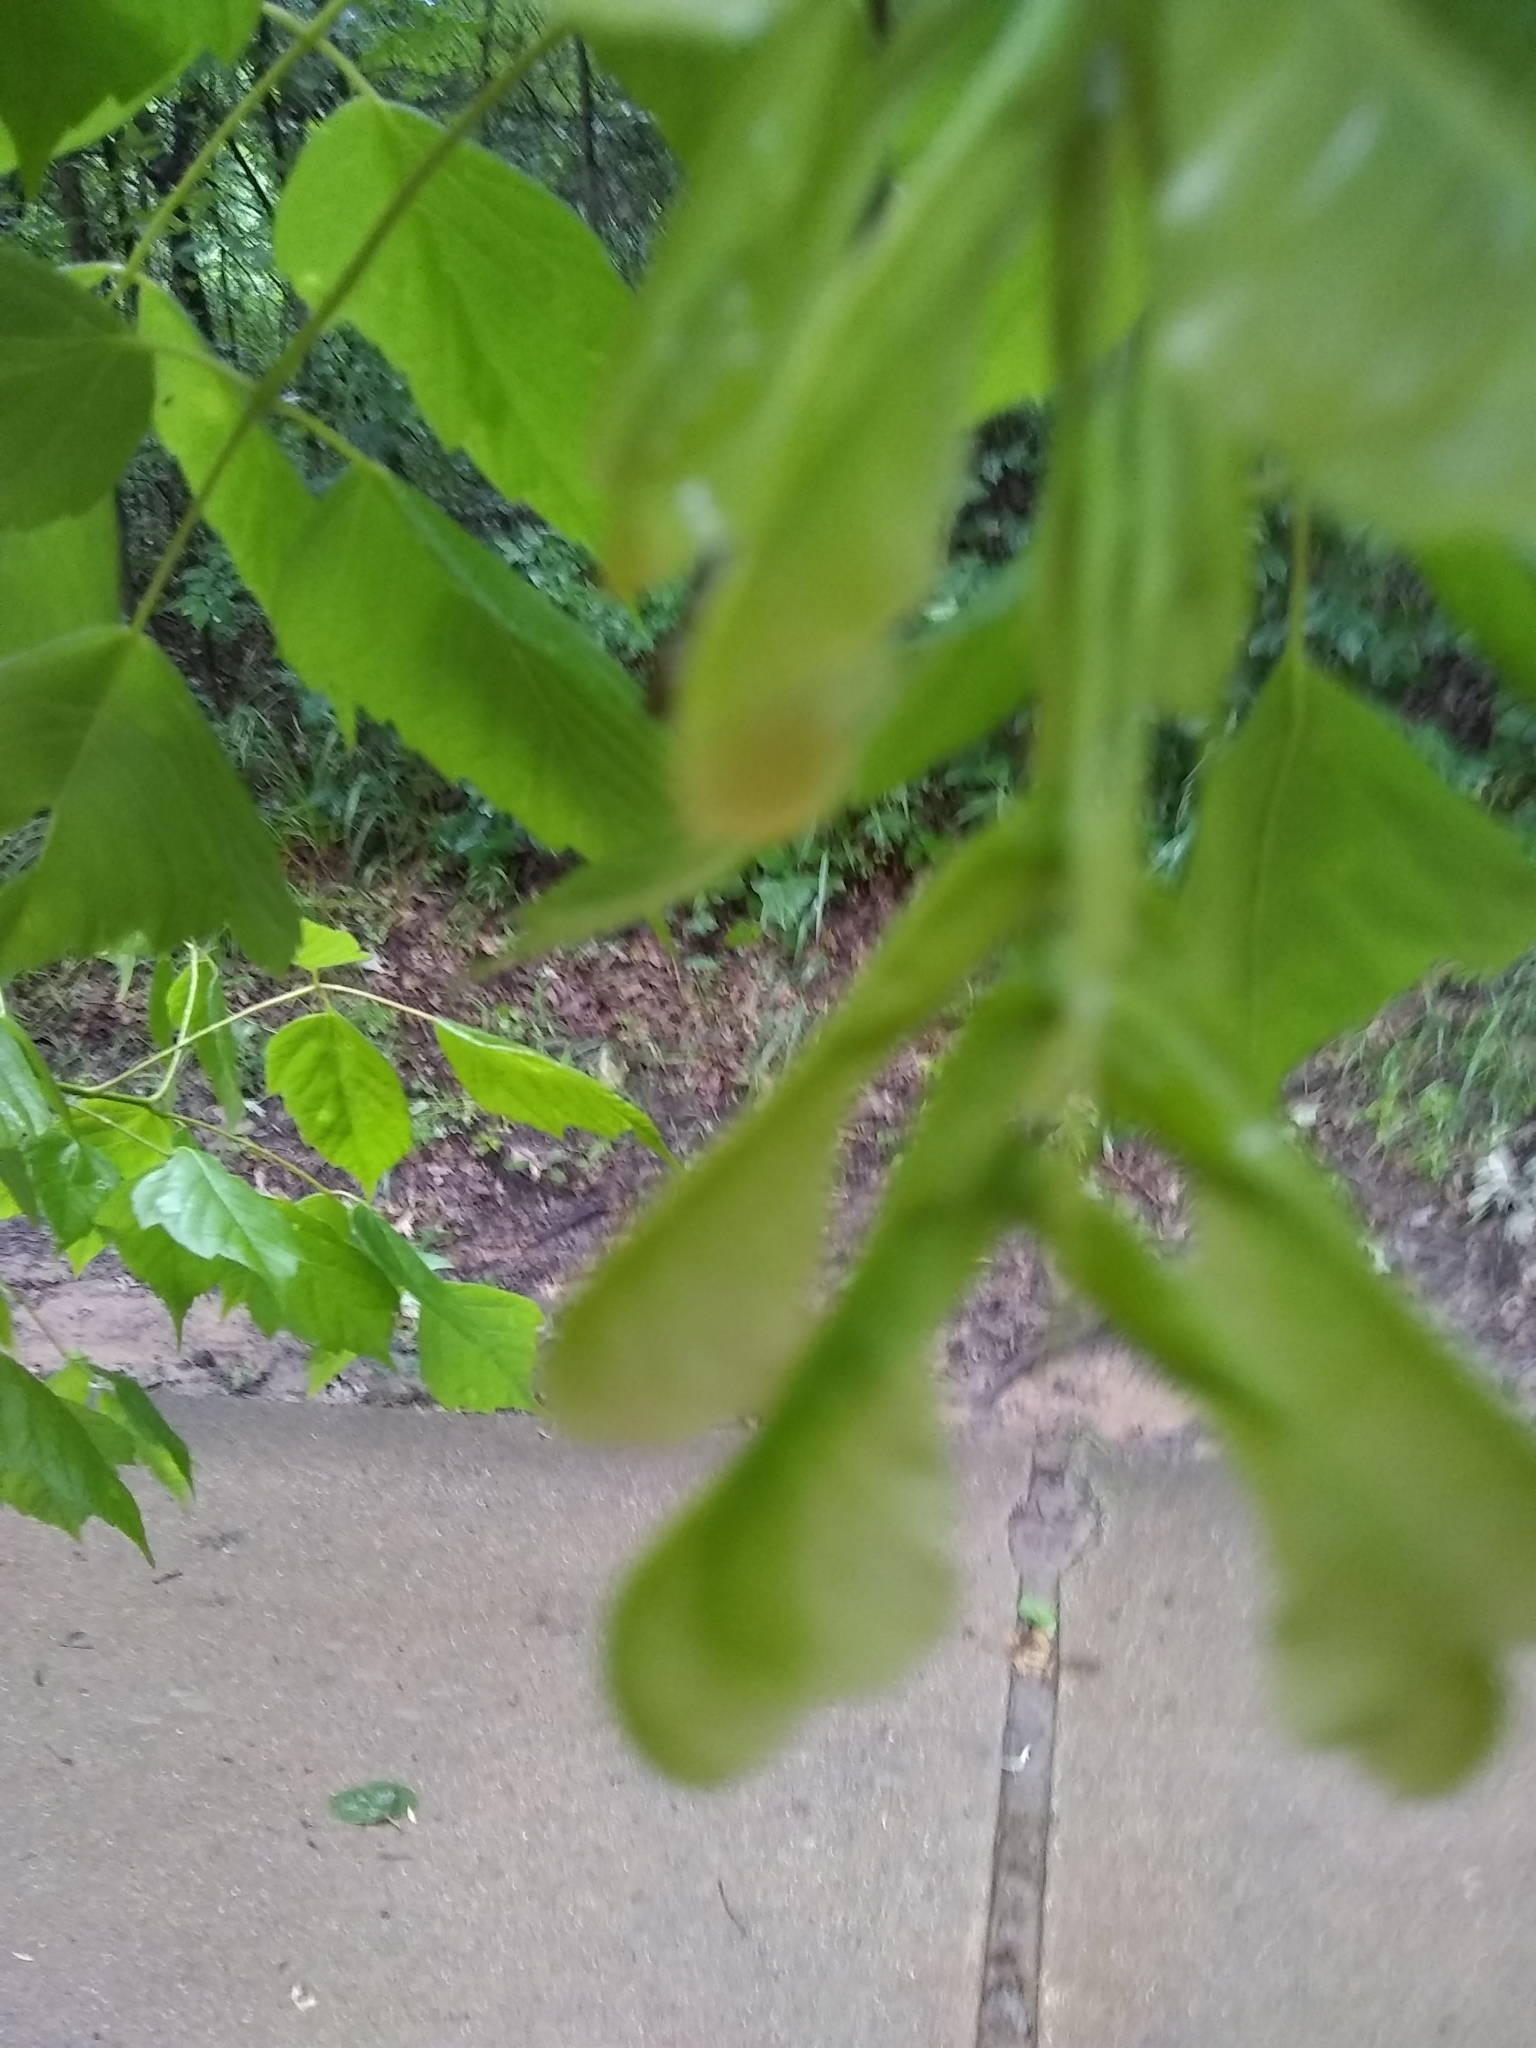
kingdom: Plantae
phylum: Tracheophyta
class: Magnoliopsida
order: Sapindales
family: Sapindaceae
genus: Acer
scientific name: Acer negundo
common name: Ashleaf maple
